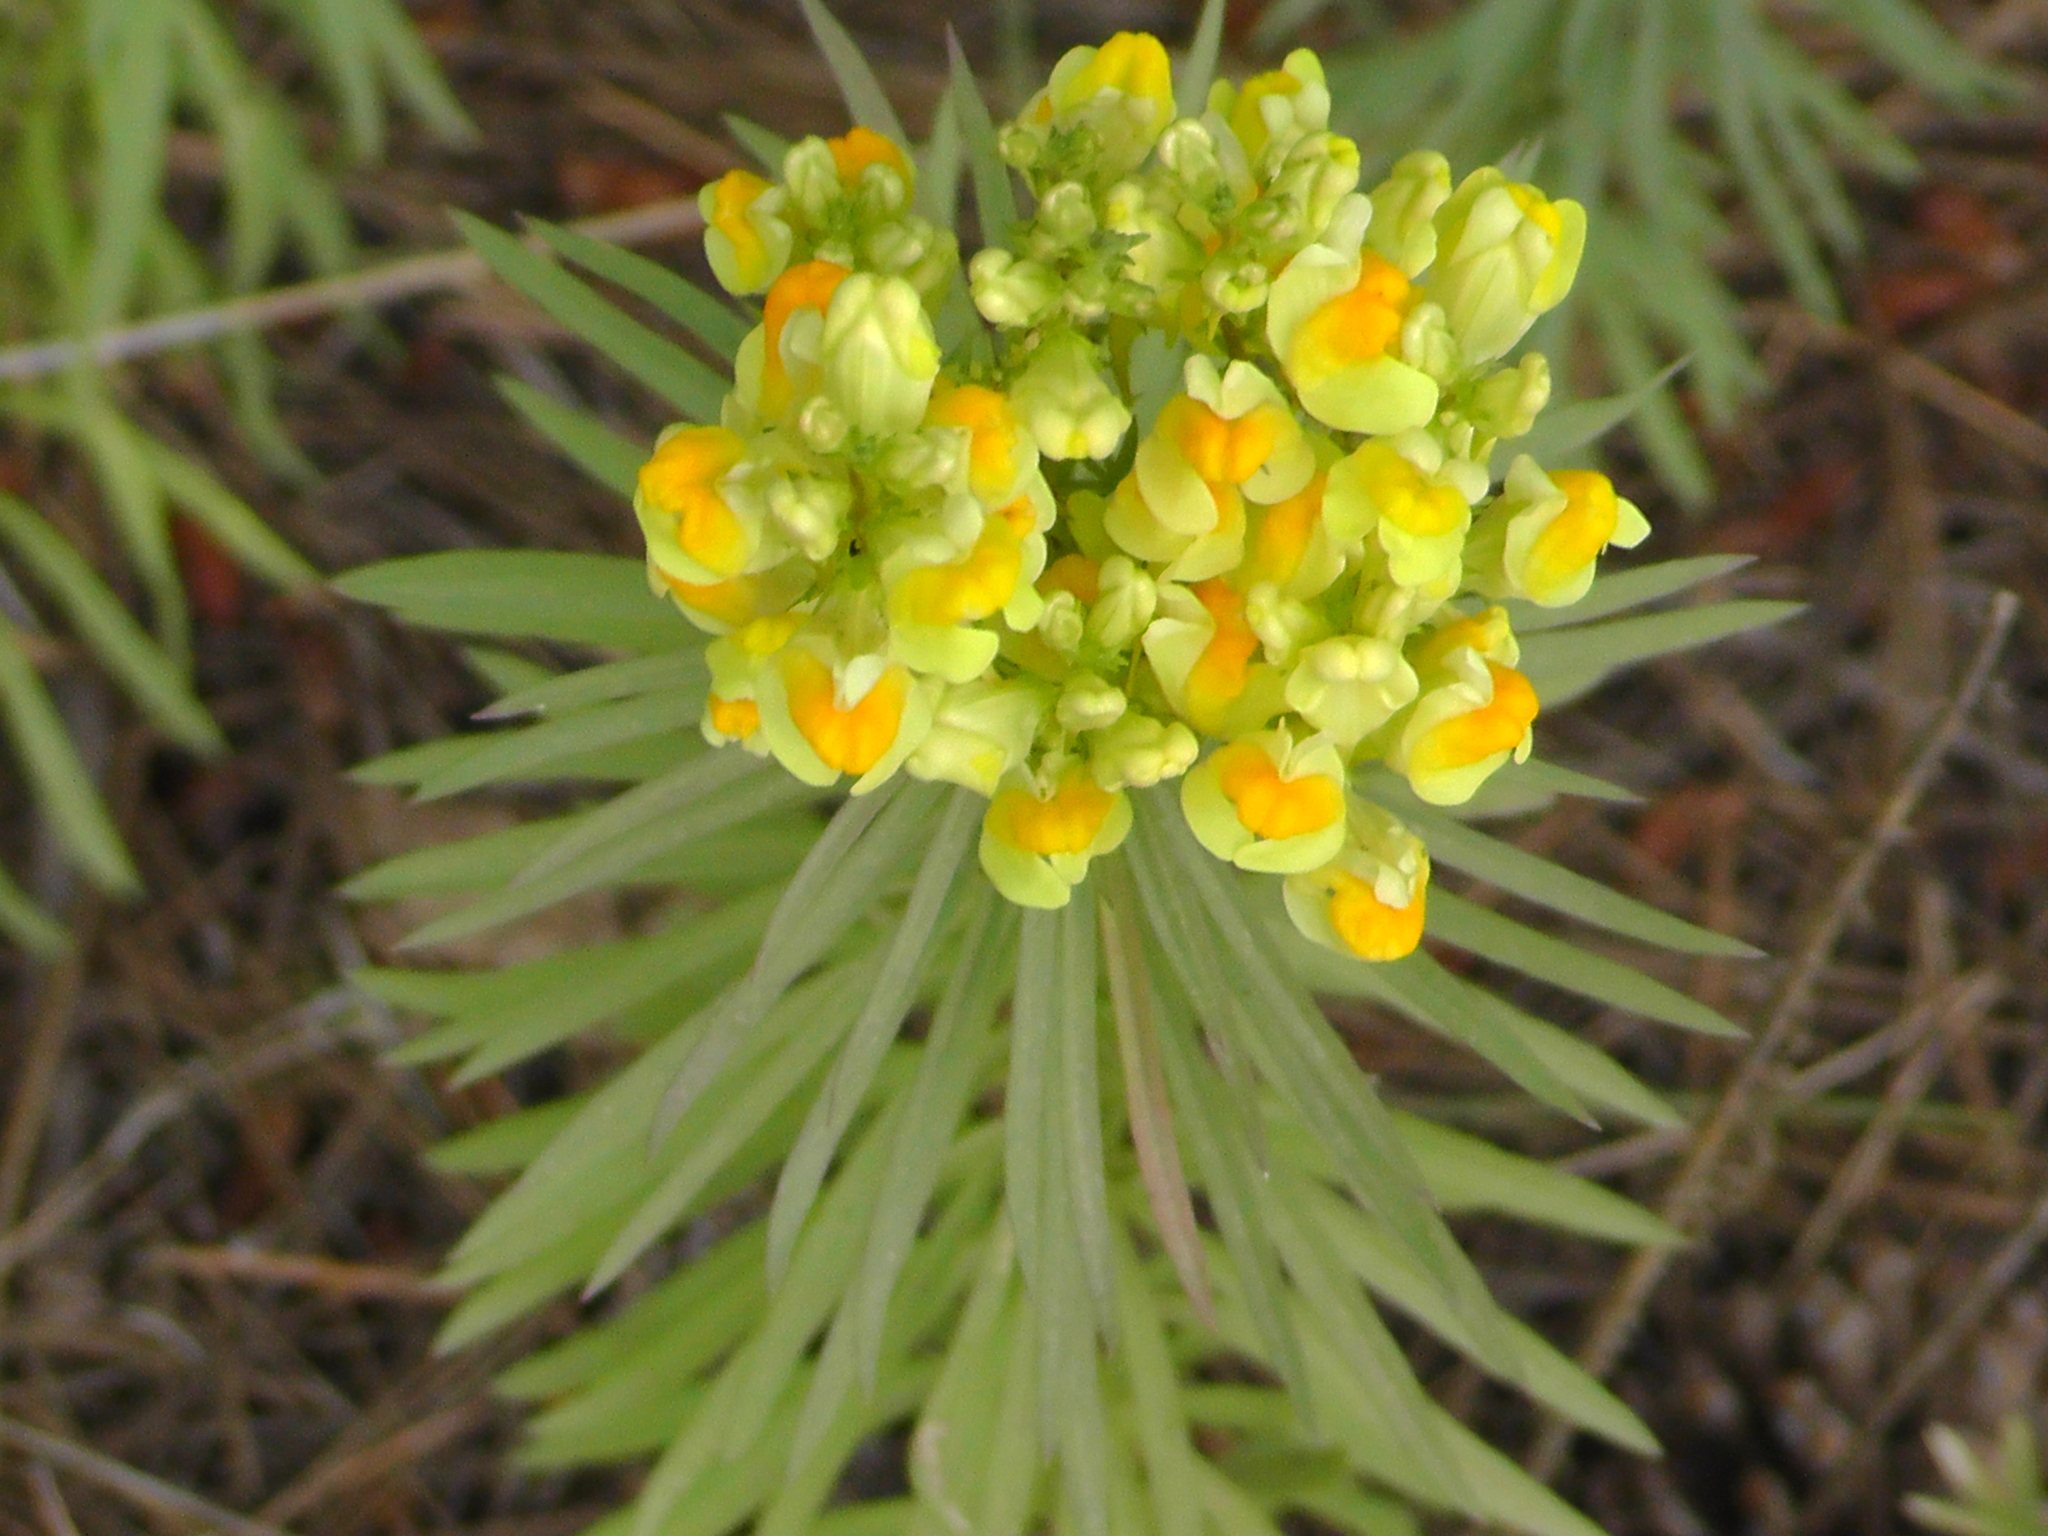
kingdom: Plantae
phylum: Tracheophyta
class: Magnoliopsida
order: Lamiales
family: Plantaginaceae
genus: Linaria
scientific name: Linaria vulgaris
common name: Butter and eggs
